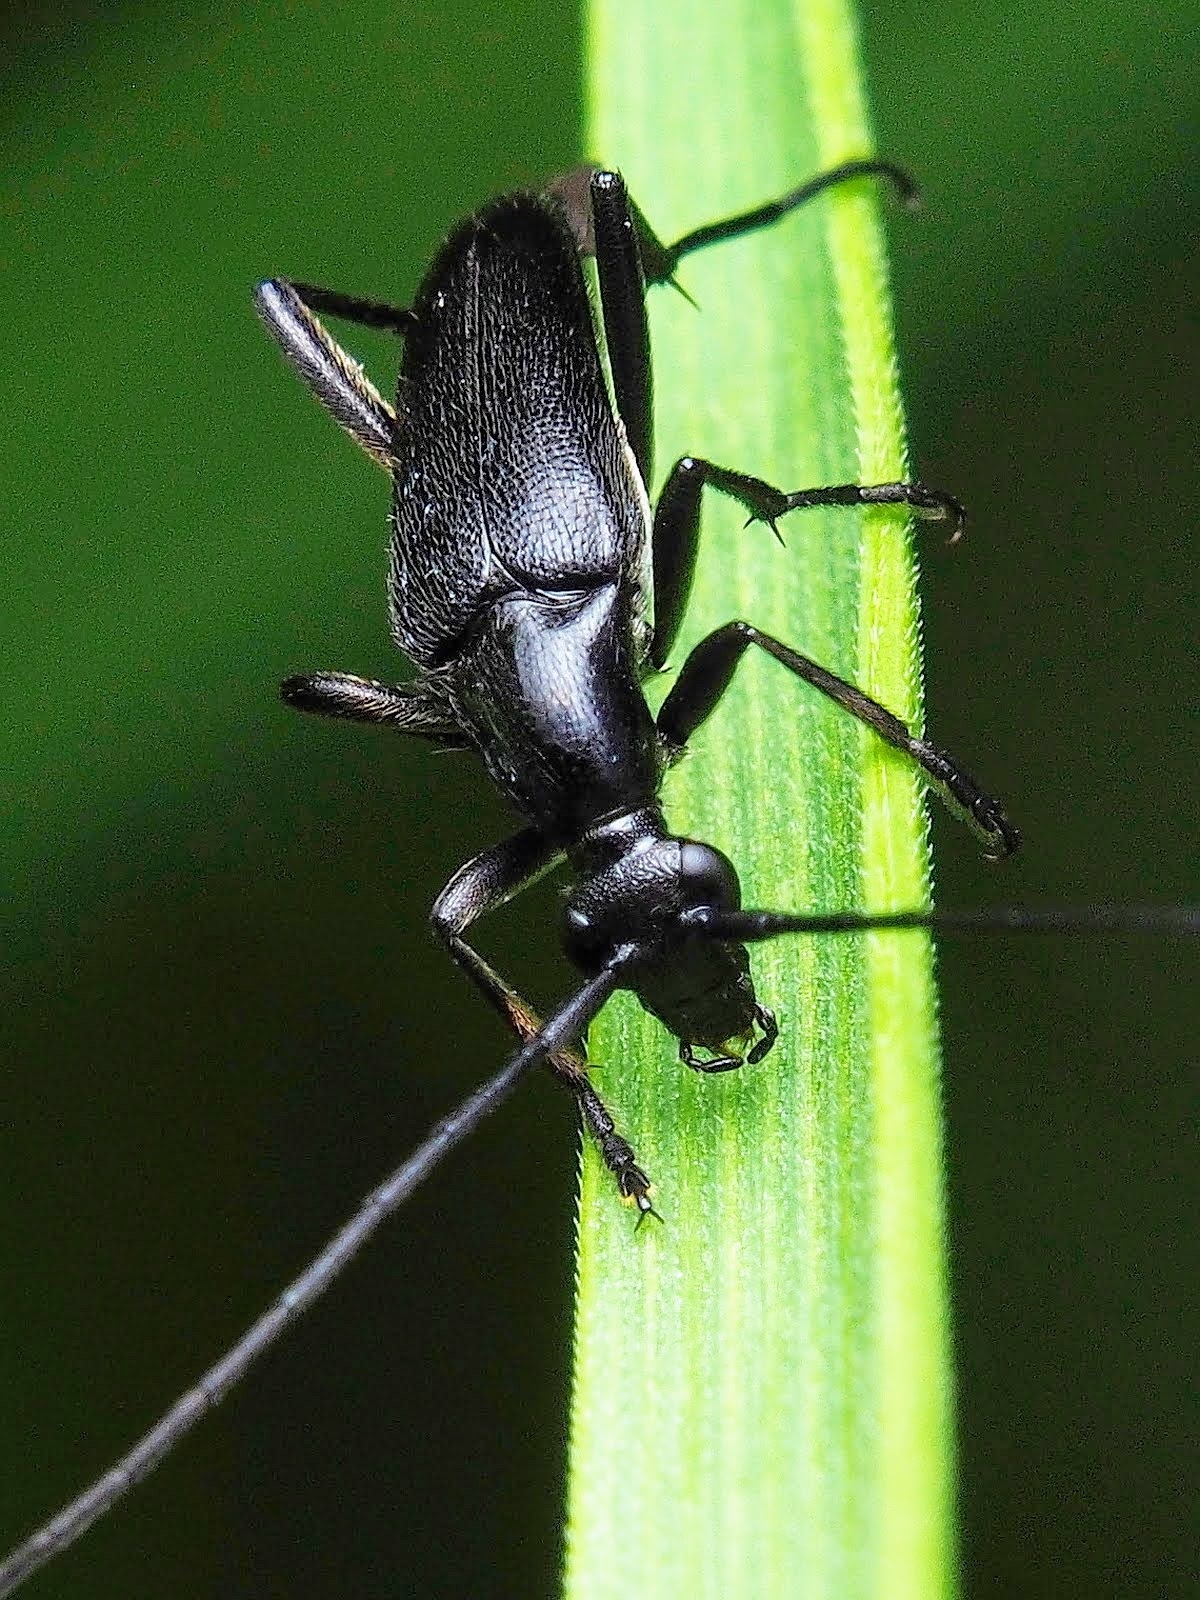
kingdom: Animalia
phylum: Arthropoda
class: Insecta
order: Coleoptera
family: Cerambycidae
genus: Stenurella
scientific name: Stenurella nigra
